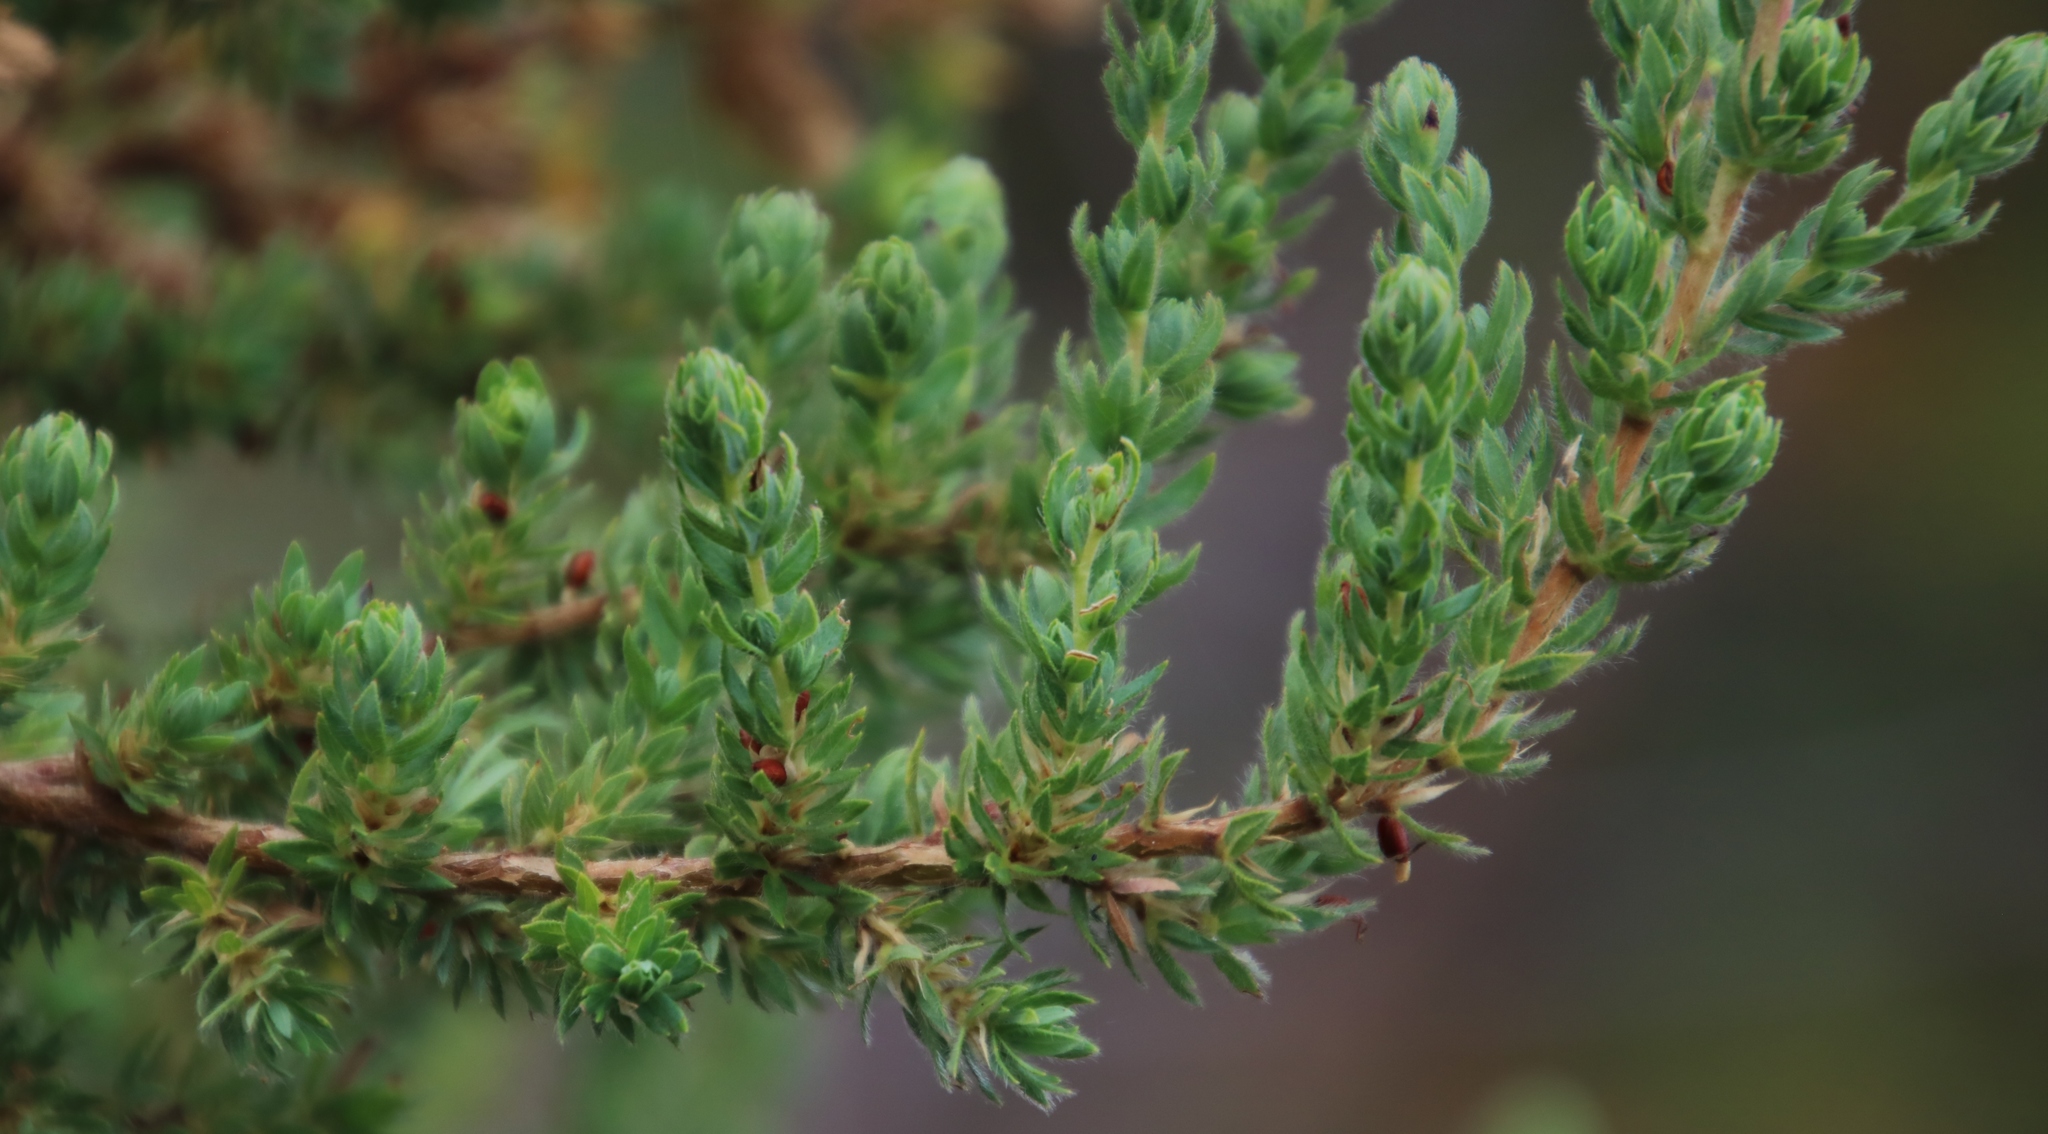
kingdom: Plantae
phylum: Tracheophyta
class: Magnoliopsida
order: Rosales
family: Rosaceae
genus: Cliffortia
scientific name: Cliffortia polygonifolia
